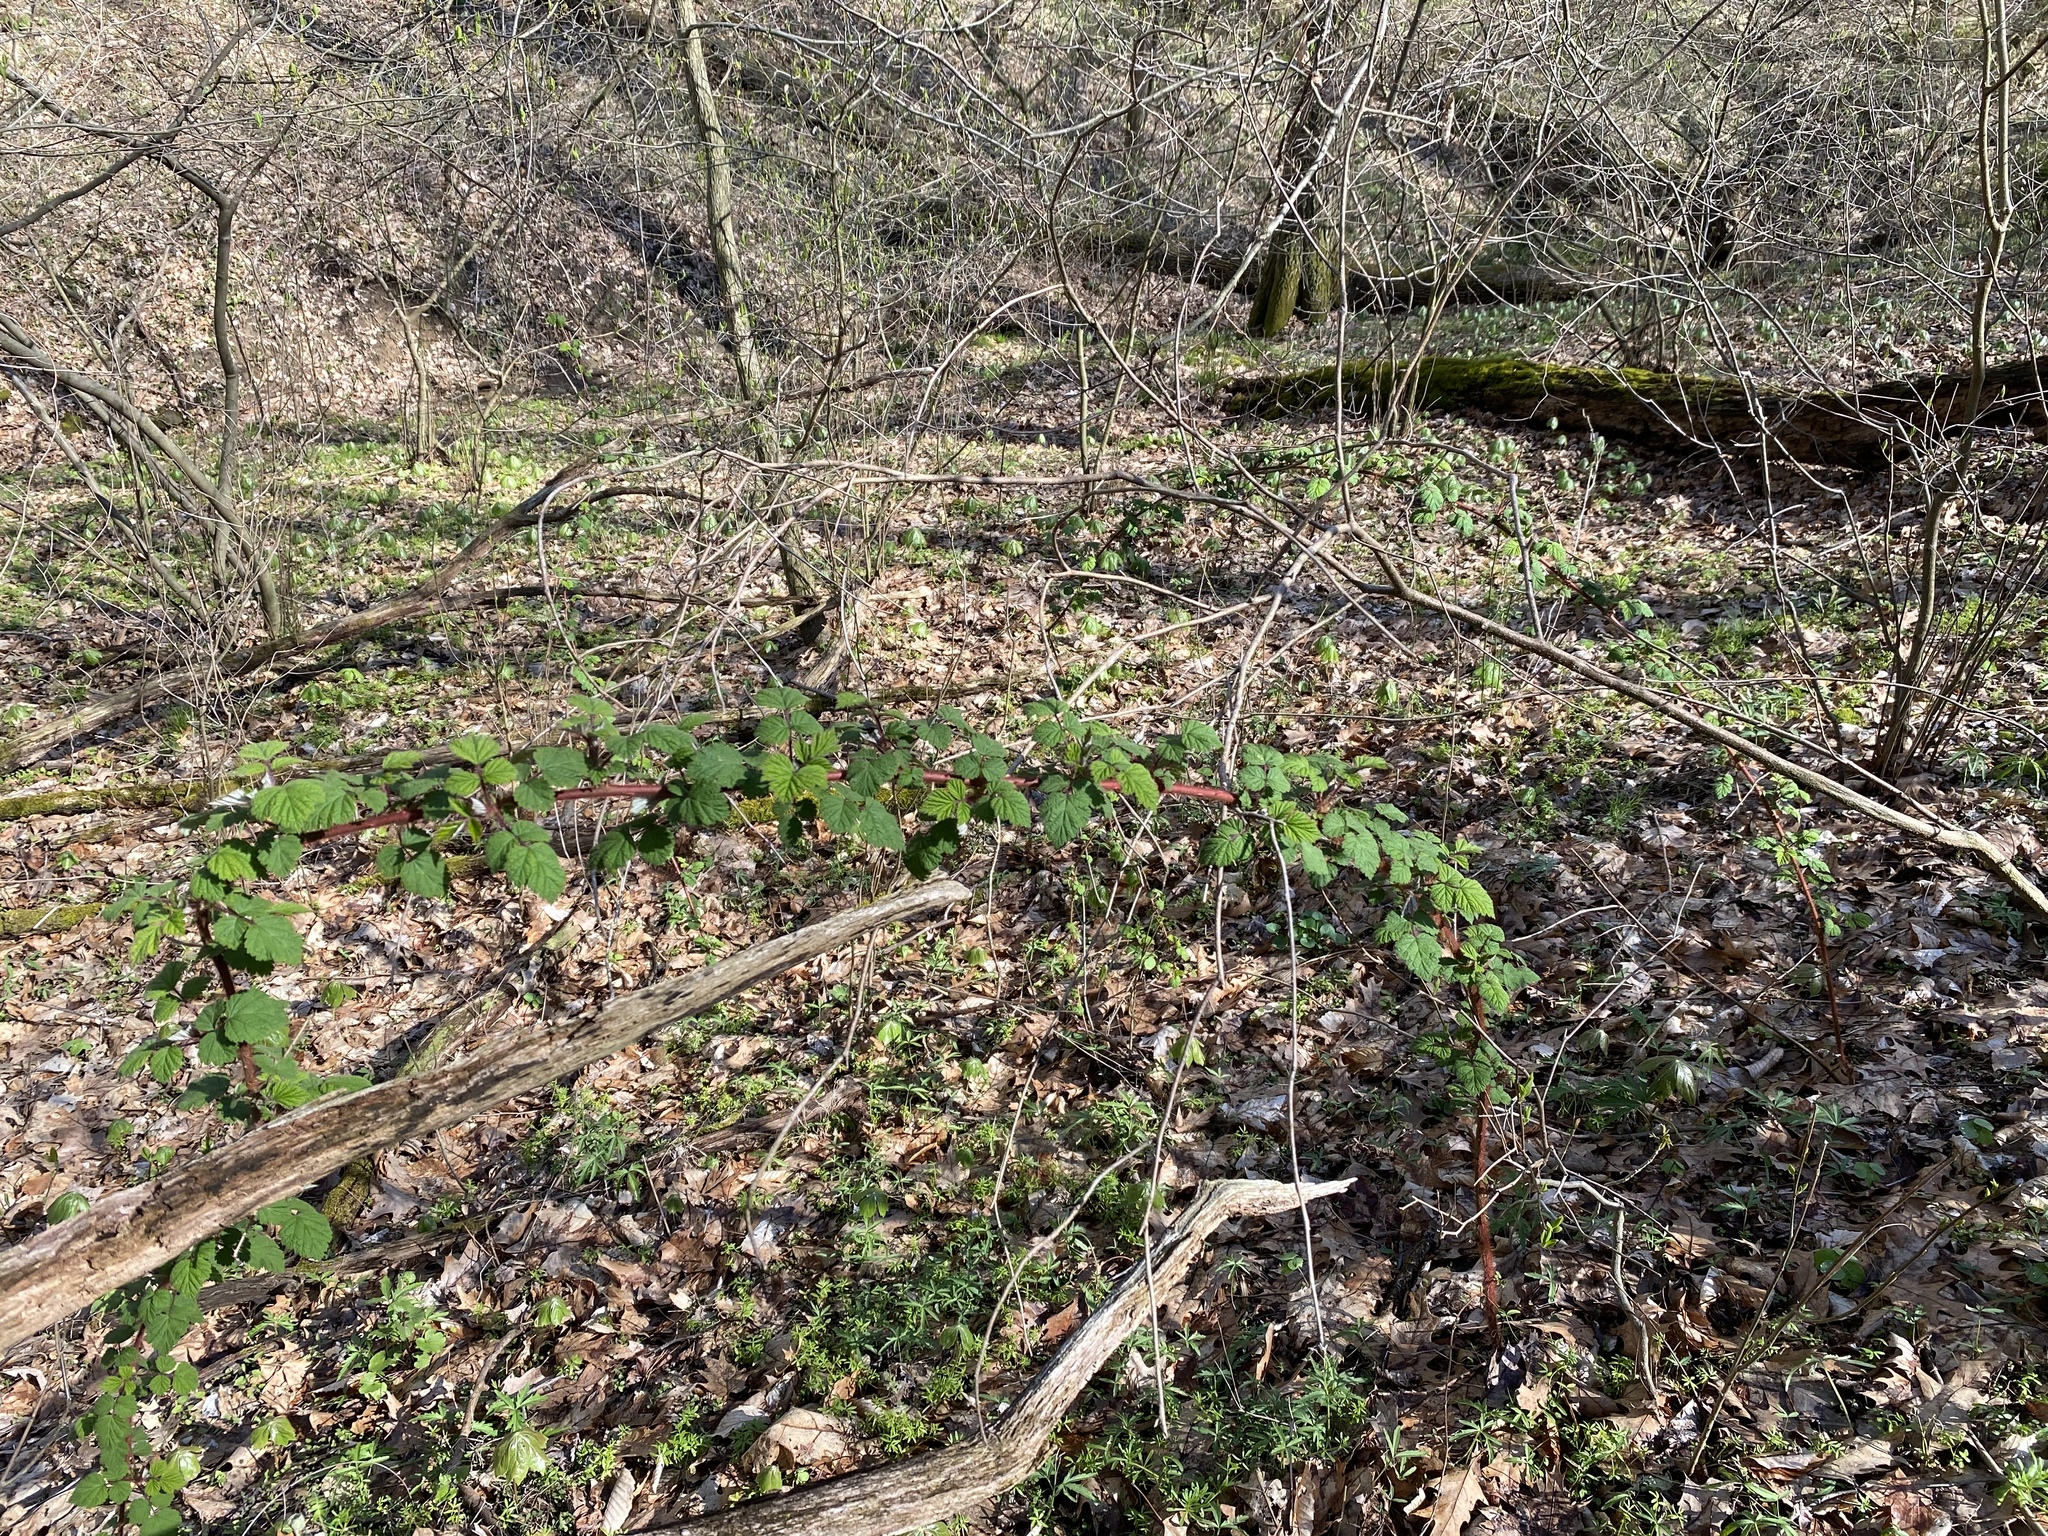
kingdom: Plantae
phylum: Tracheophyta
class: Magnoliopsida
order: Rosales
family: Rosaceae
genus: Rubus
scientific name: Rubus phoenicolasius
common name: Japanese wineberry
